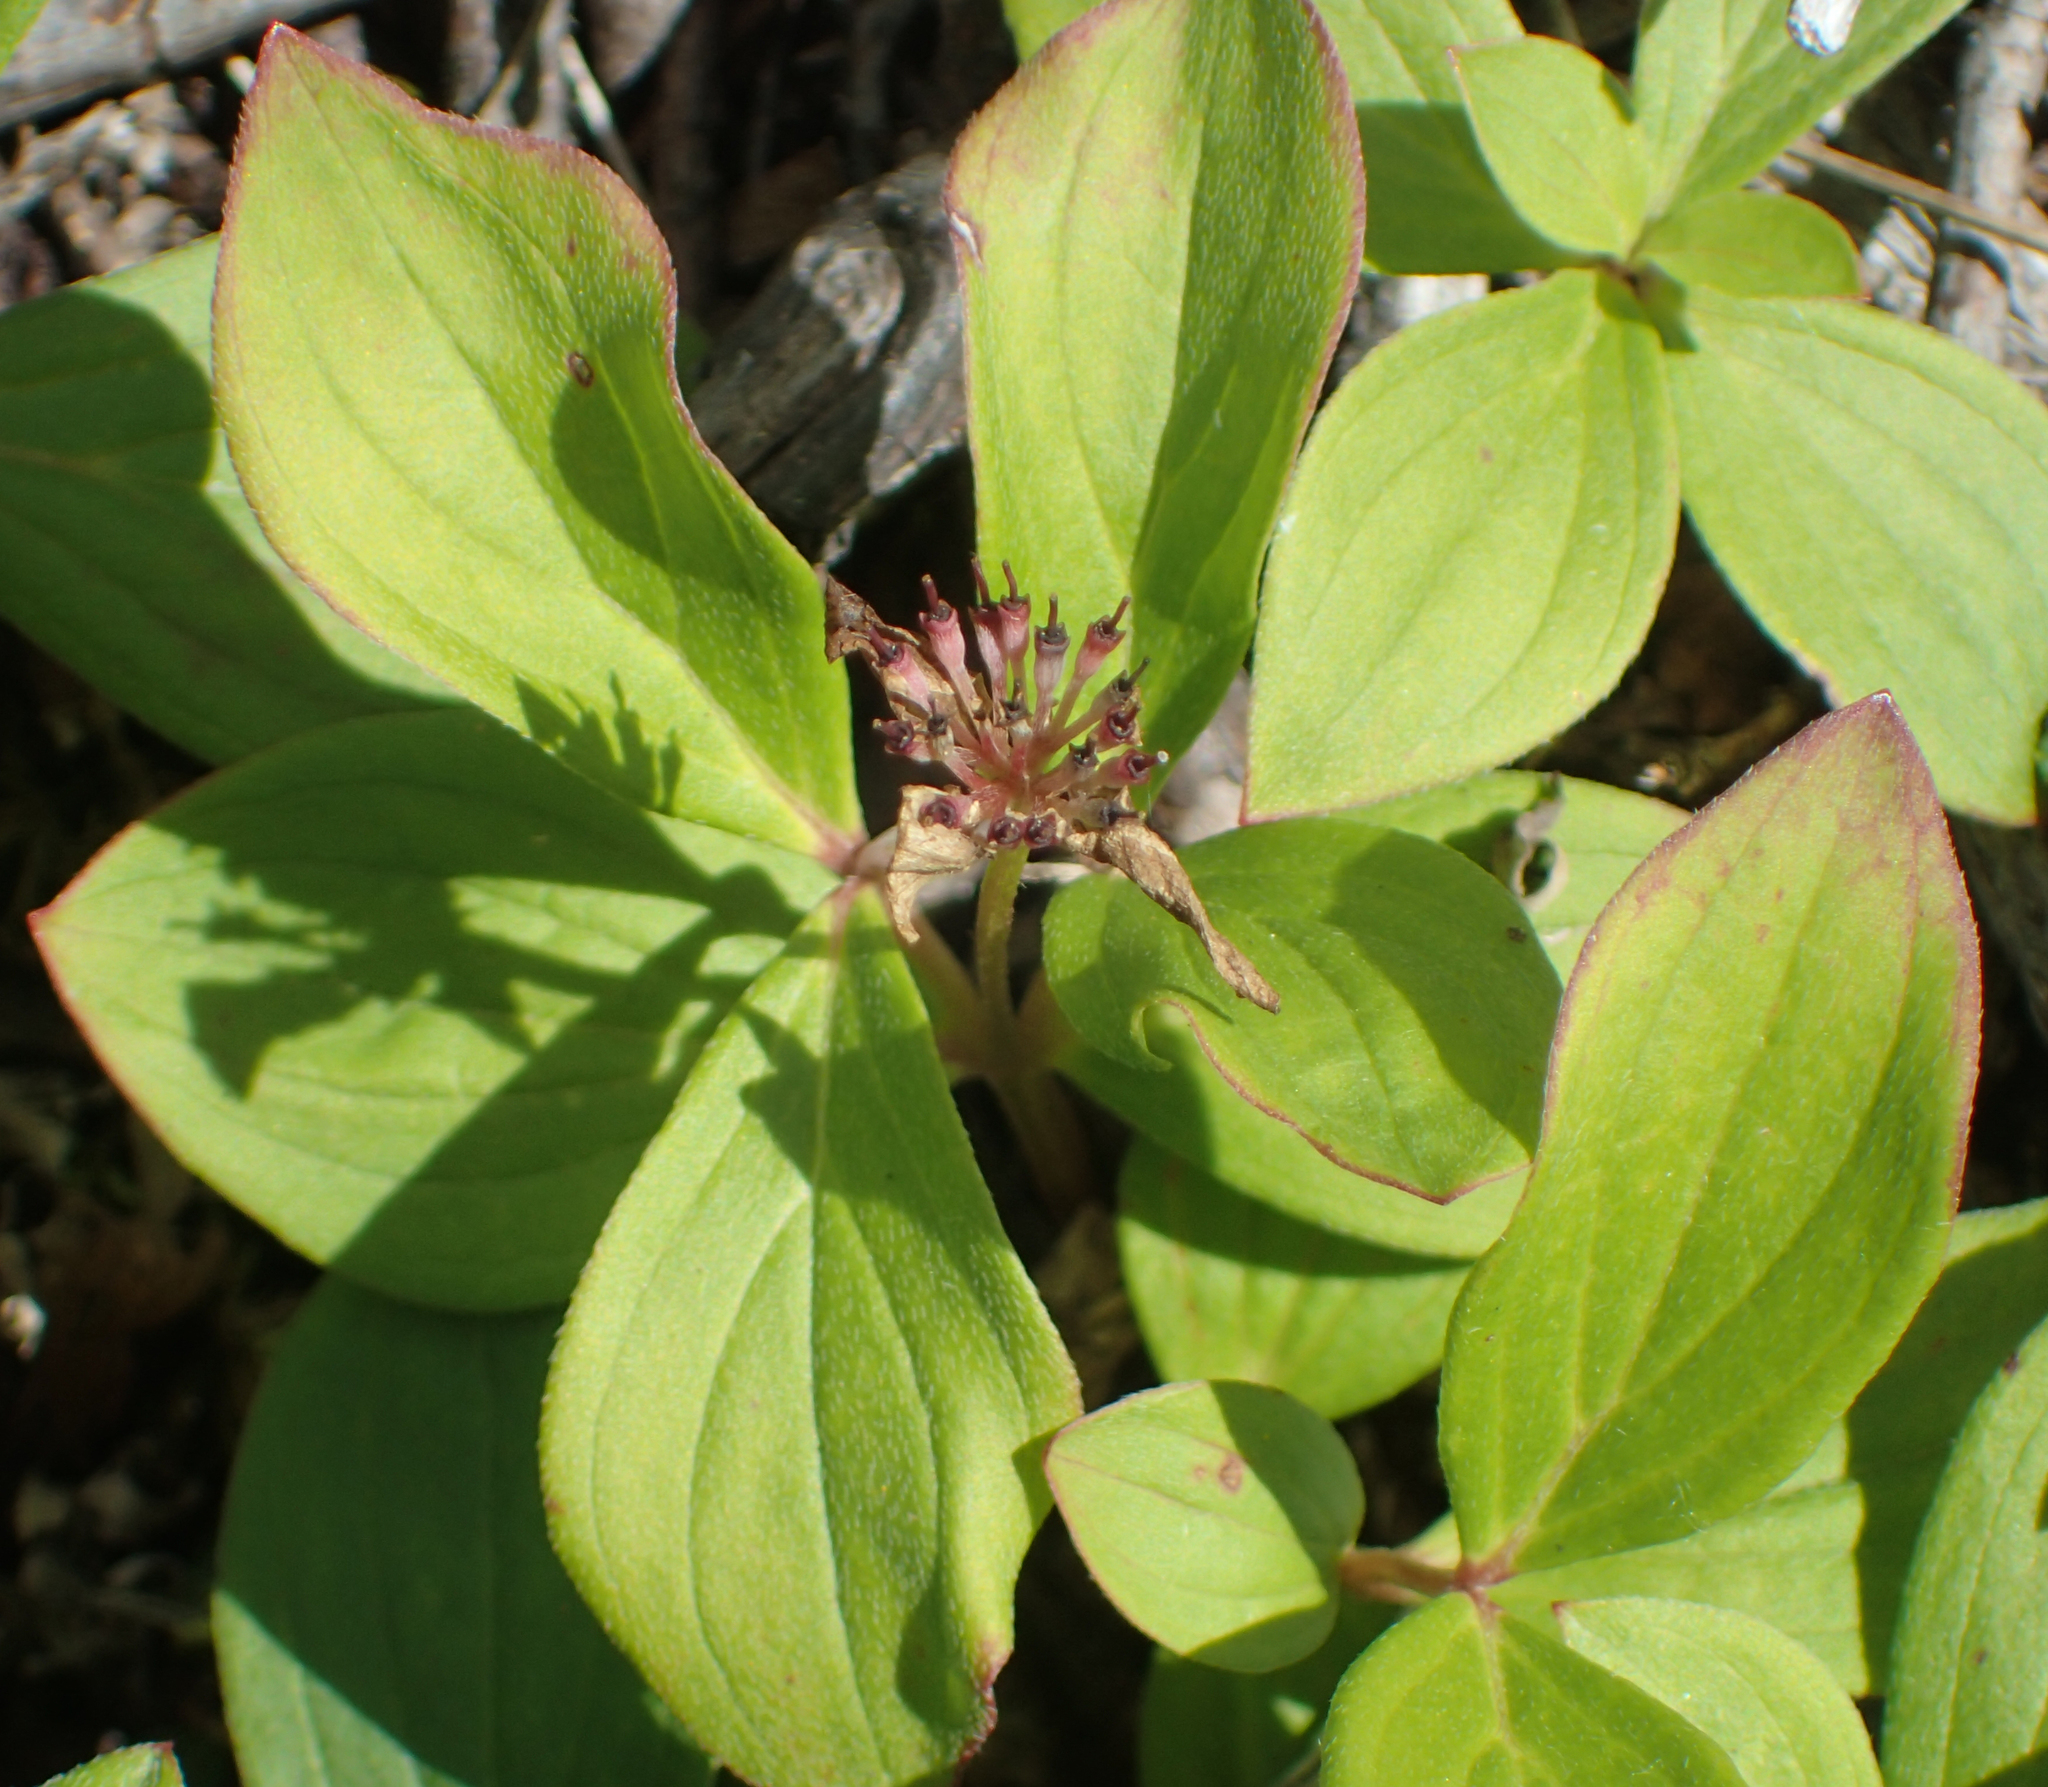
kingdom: Plantae
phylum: Tracheophyta
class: Magnoliopsida
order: Cornales
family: Cornaceae
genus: Cornus
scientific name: Cornus canadensis
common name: Creeping dogwood
